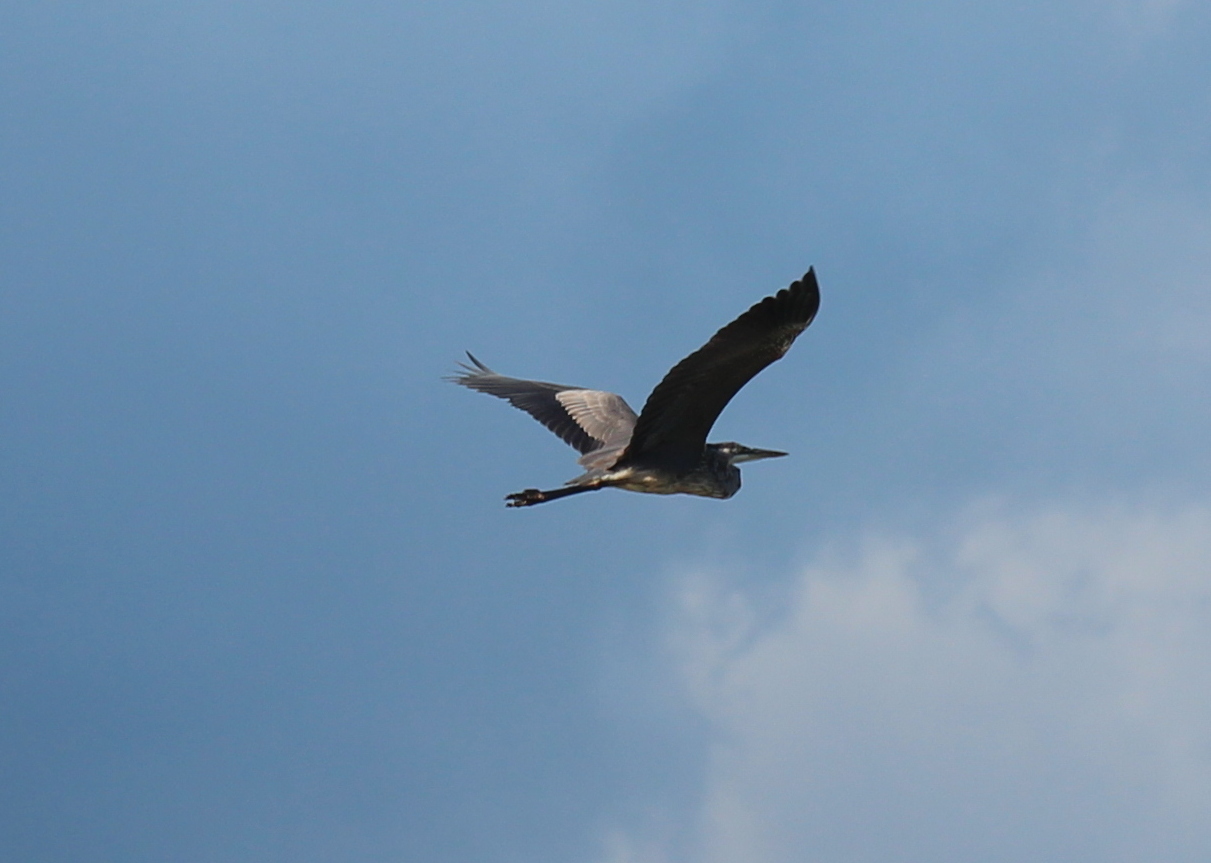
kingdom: Animalia
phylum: Chordata
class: Aves
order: Pelecaniformes
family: Ardeidae
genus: Ardea
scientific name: Ardea herodias
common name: Great blue heron
